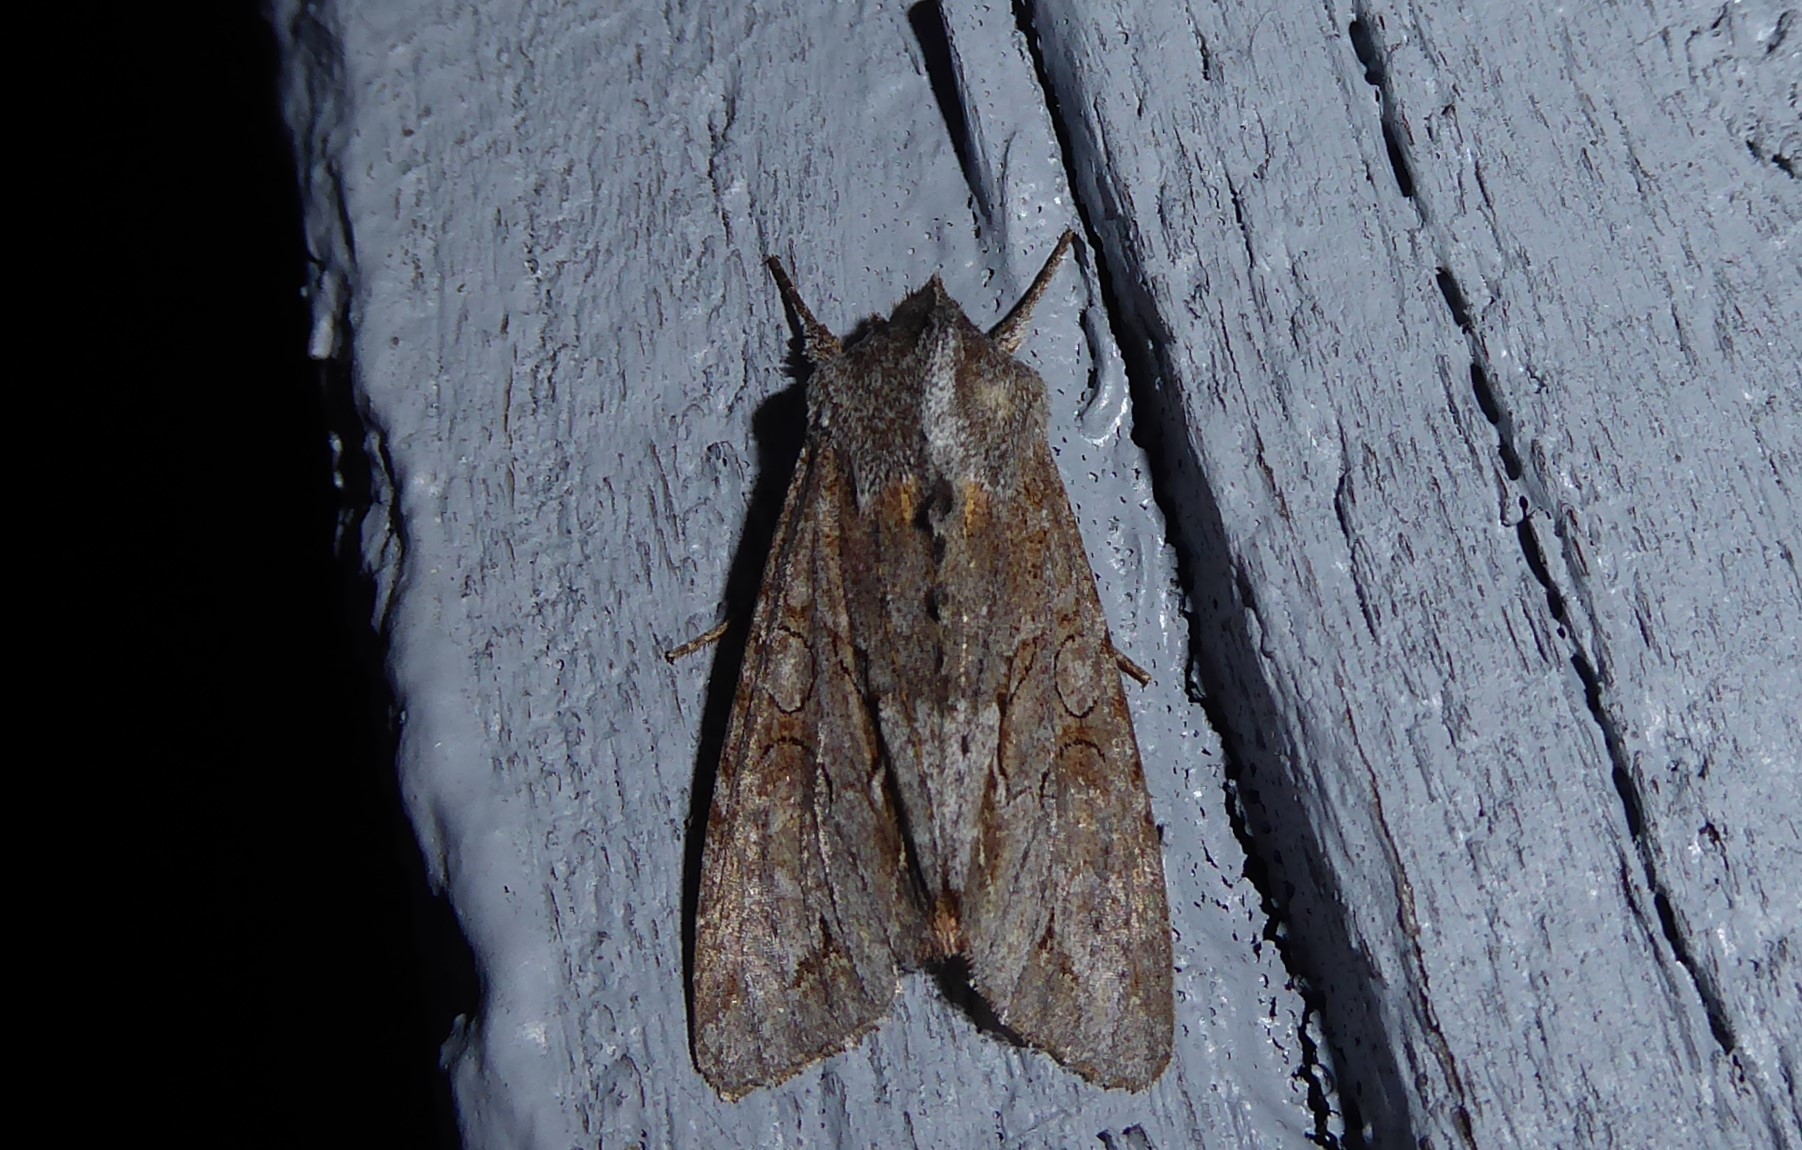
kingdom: Animalia
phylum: Arthropoda
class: Insecta
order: Lepidoptera
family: Noctuidae
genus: Ichneutica
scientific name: Ichneutica
